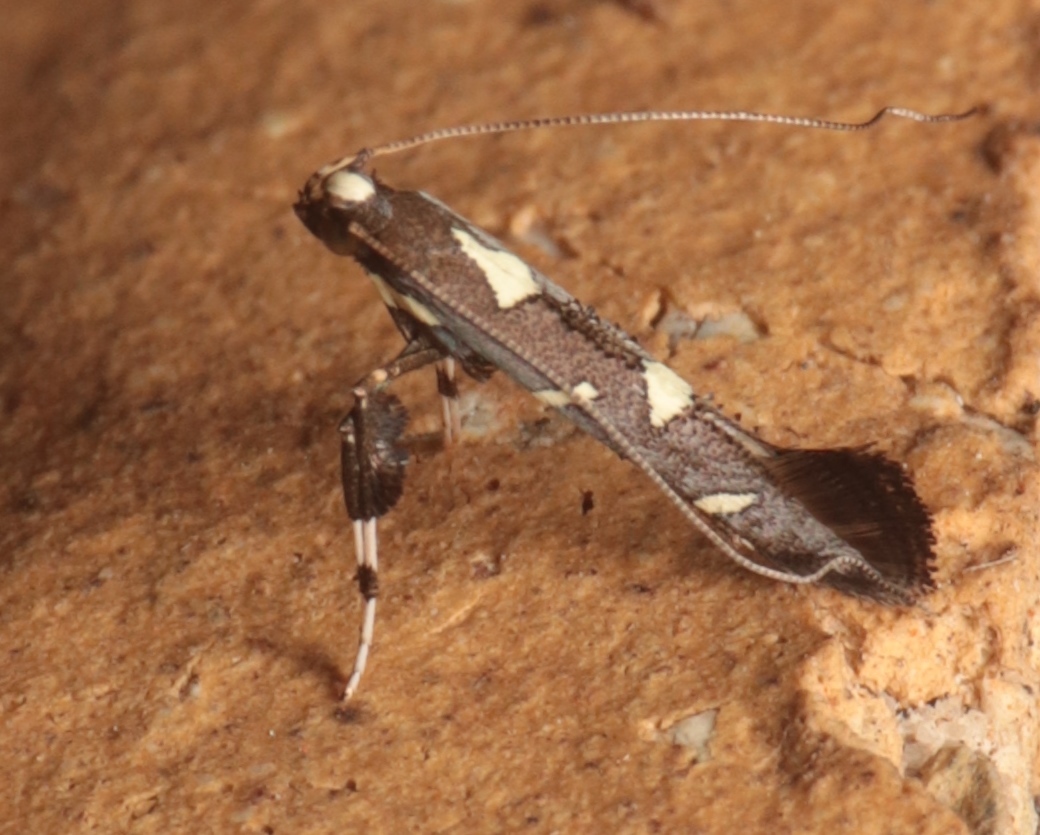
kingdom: Animalia
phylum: Arthropoda
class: Insecta
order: Lepidoptera
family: Gracillariidae
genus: Caloptilia
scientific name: Caloptilia adelosema
